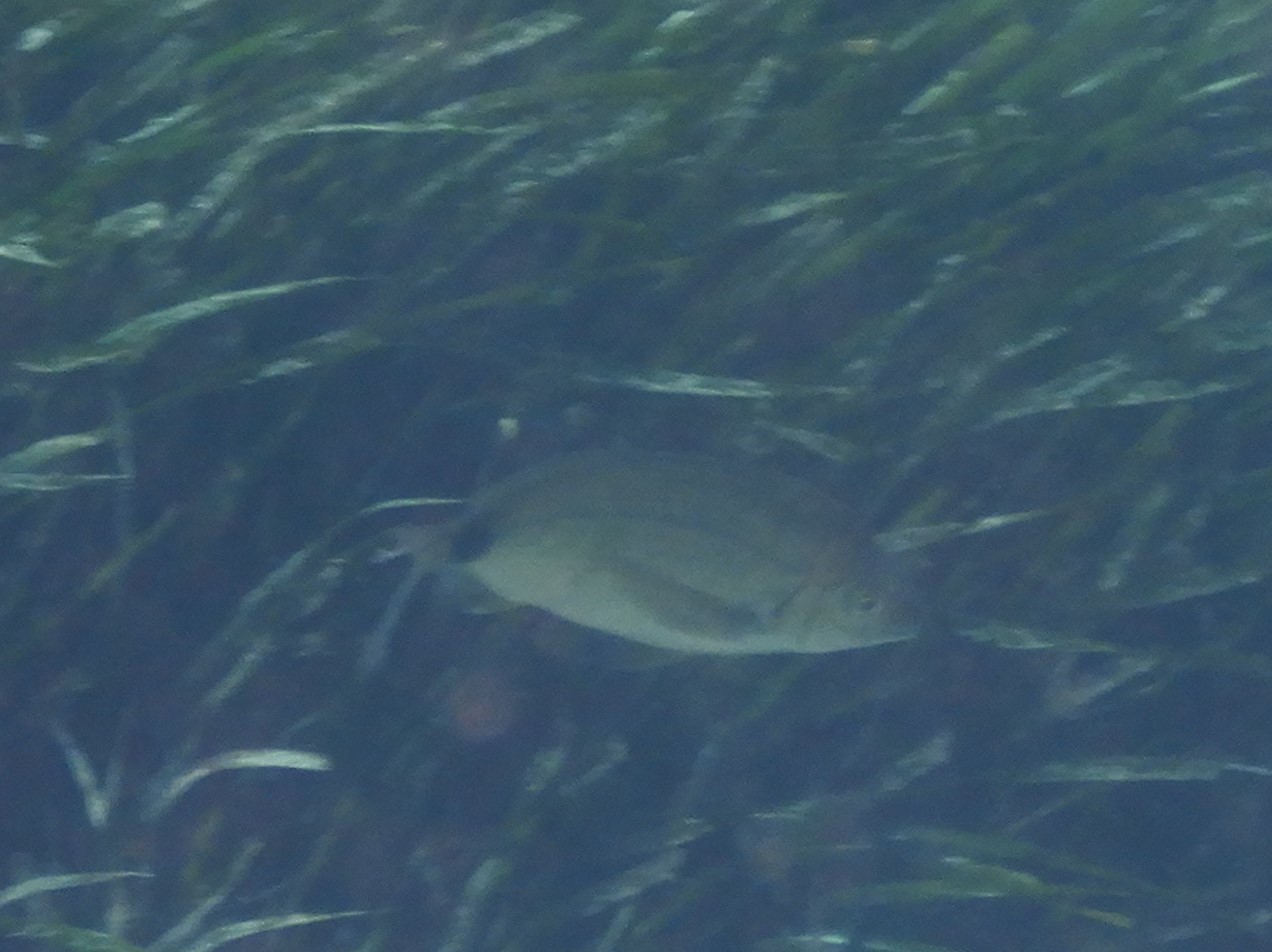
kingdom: Animalia
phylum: Chordata
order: Perciformes
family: Sparidae
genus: Diplodus
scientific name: Diplodus annularis
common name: Annular seabream
